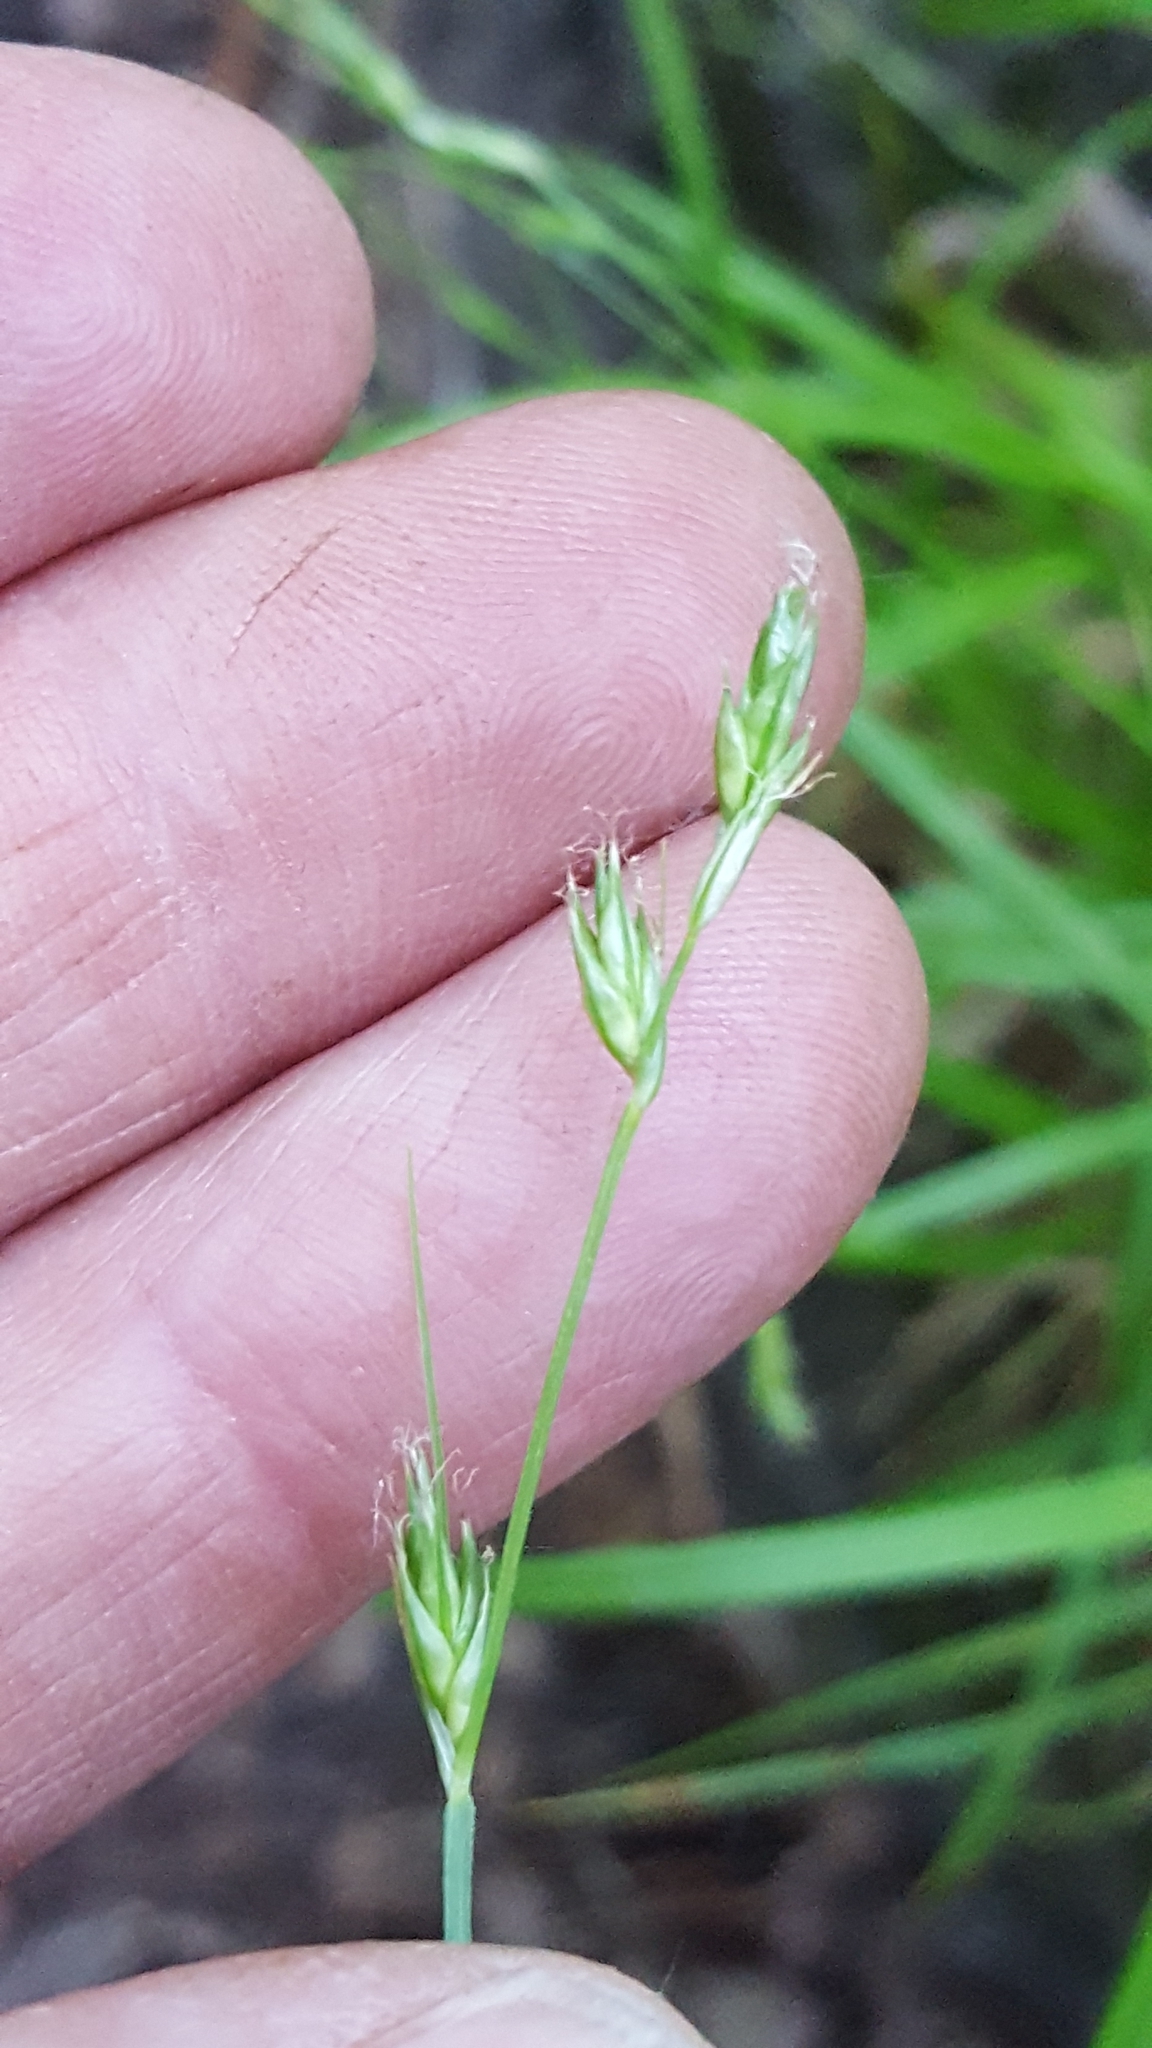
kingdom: Plantae
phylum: Tracheophyta
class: Liliopsida
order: Poales
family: Cyperaceae
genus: Carex
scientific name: Carex deweyana
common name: Dewey's sedge
